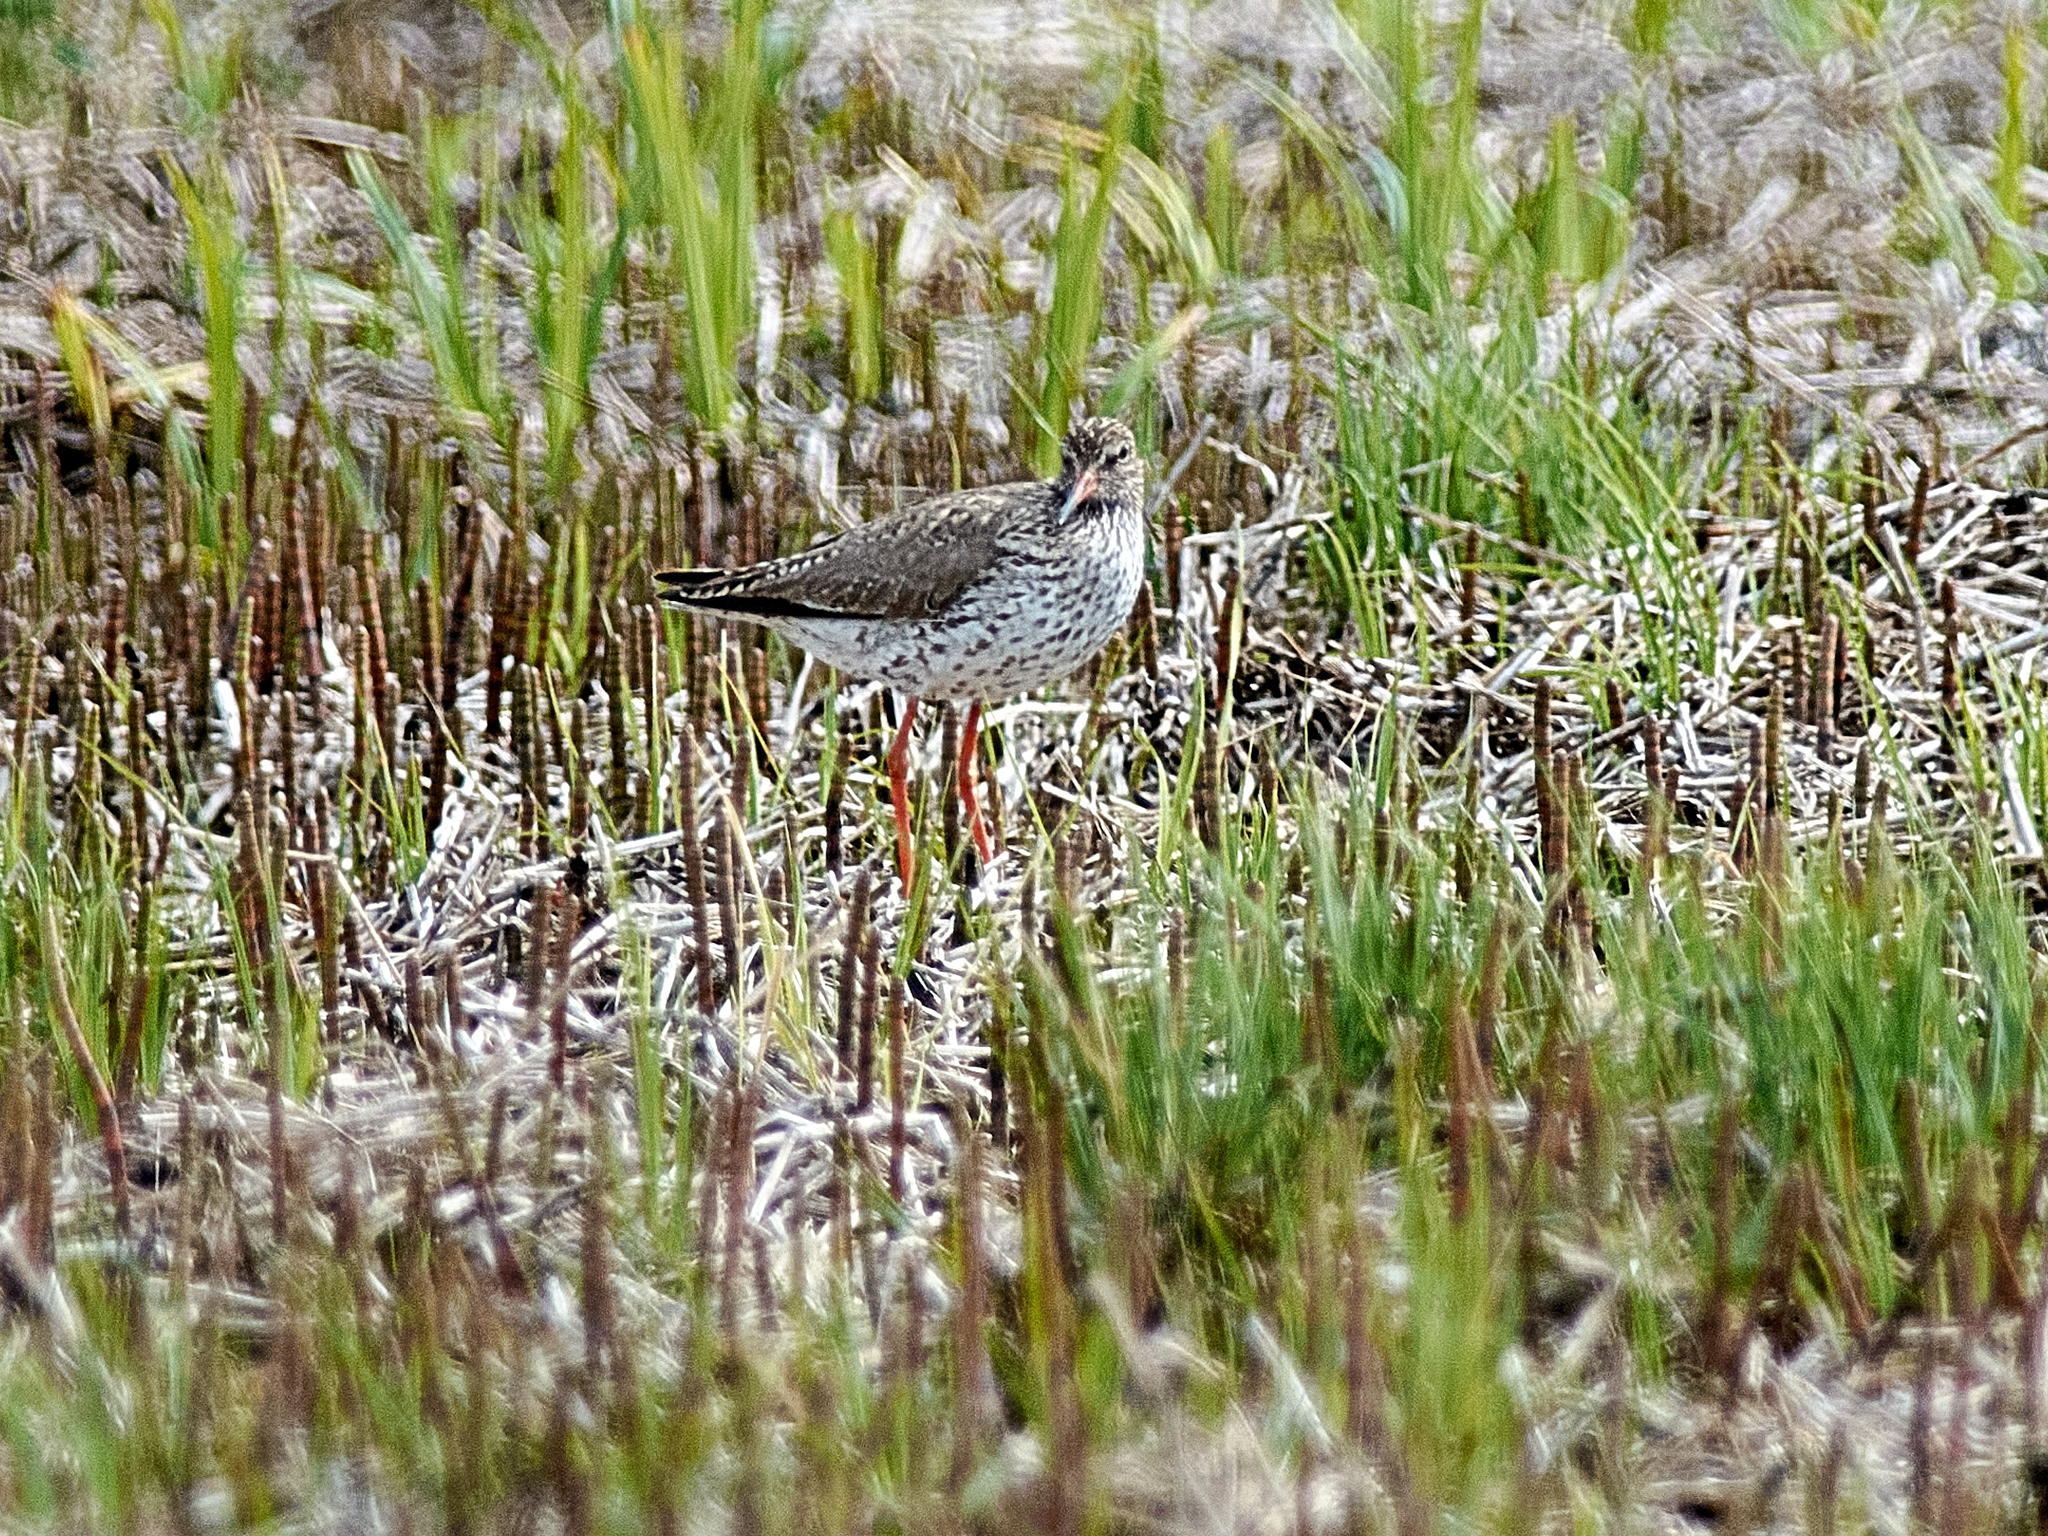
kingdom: Animalia
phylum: Chordata
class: Aves
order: Charadriiformes
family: Scolopacidae
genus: Tringa
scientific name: Tringa totanus
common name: Common redshank
